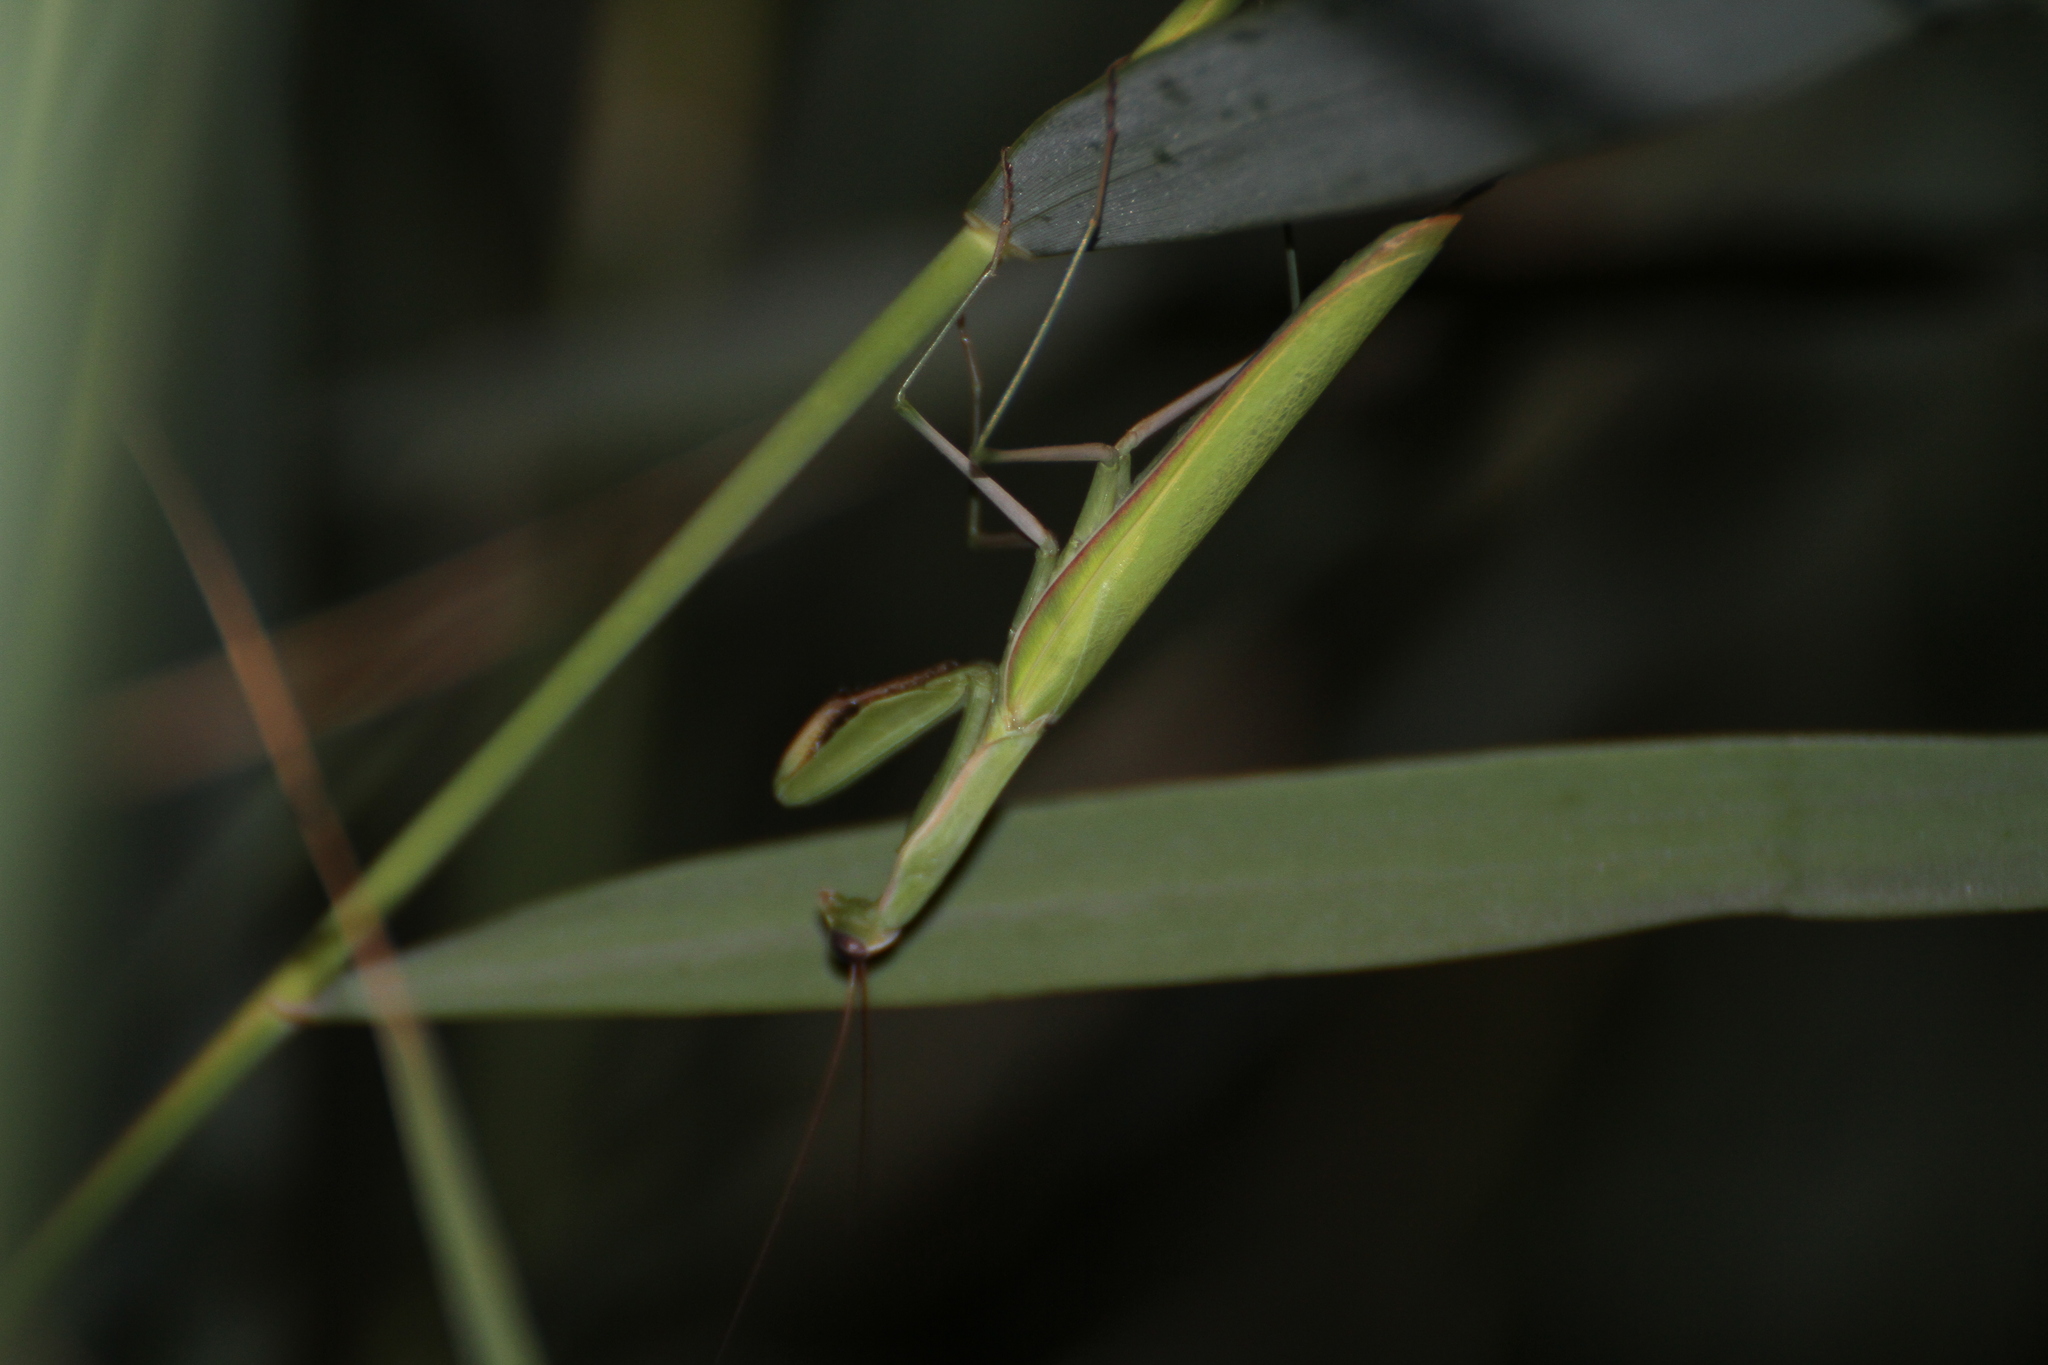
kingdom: Animalia
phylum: Arthropoda
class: Insecta
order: Mantodea
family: Mantidae
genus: Mantis
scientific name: Mantis religiosa
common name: Praying mantis
